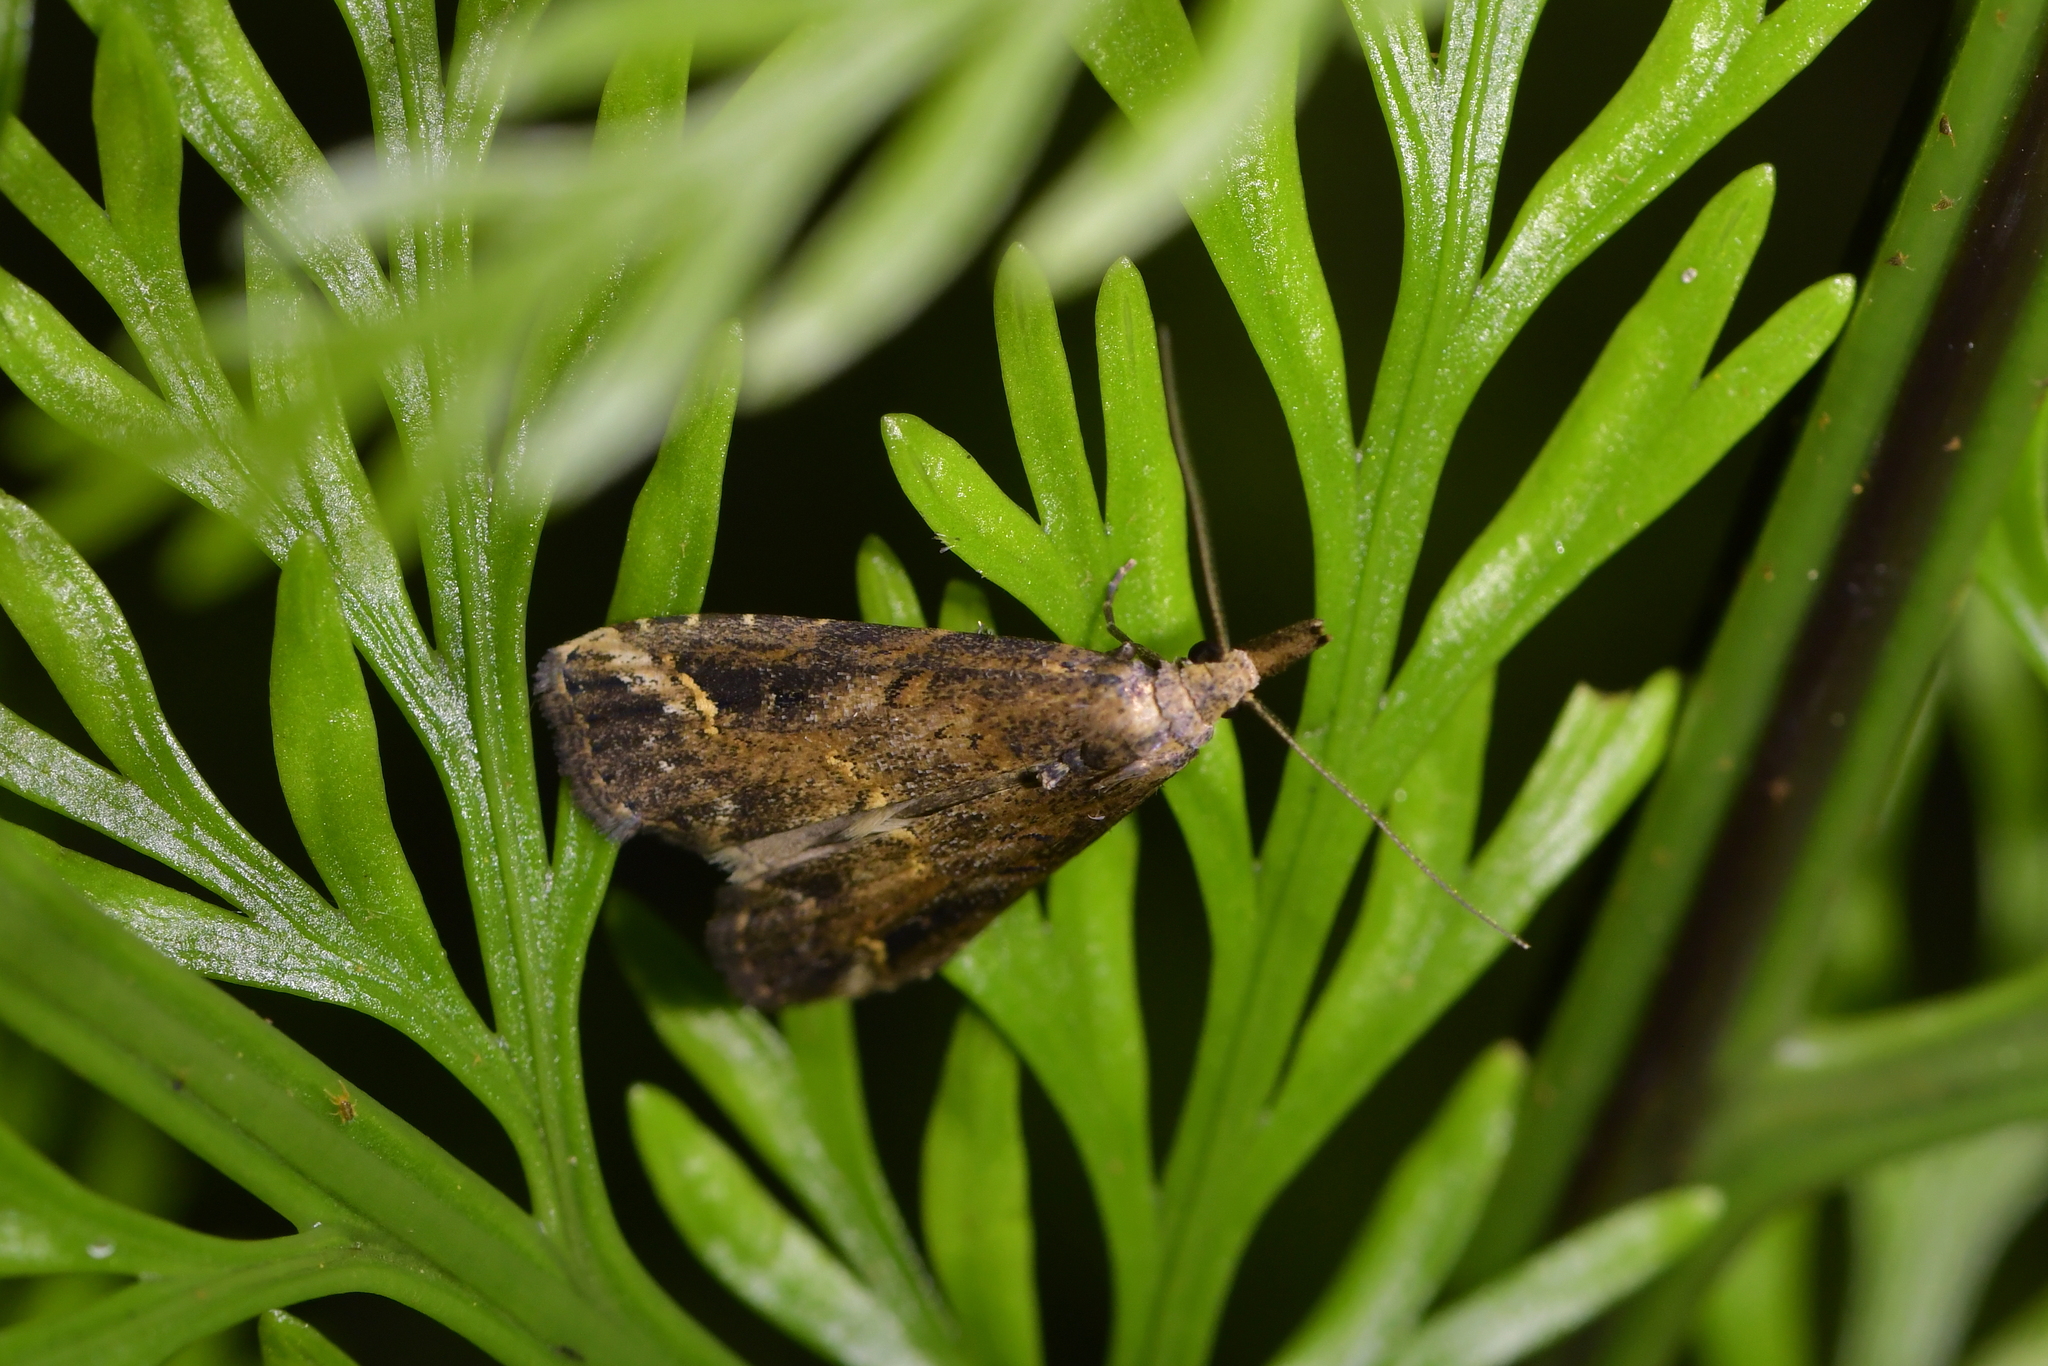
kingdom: Animalia
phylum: Arthropoda
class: Insecta
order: Lepidoptera
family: Erebidae
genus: Schrankia
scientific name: Schrankia costaestrigalis
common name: Pinion-streaked snout
